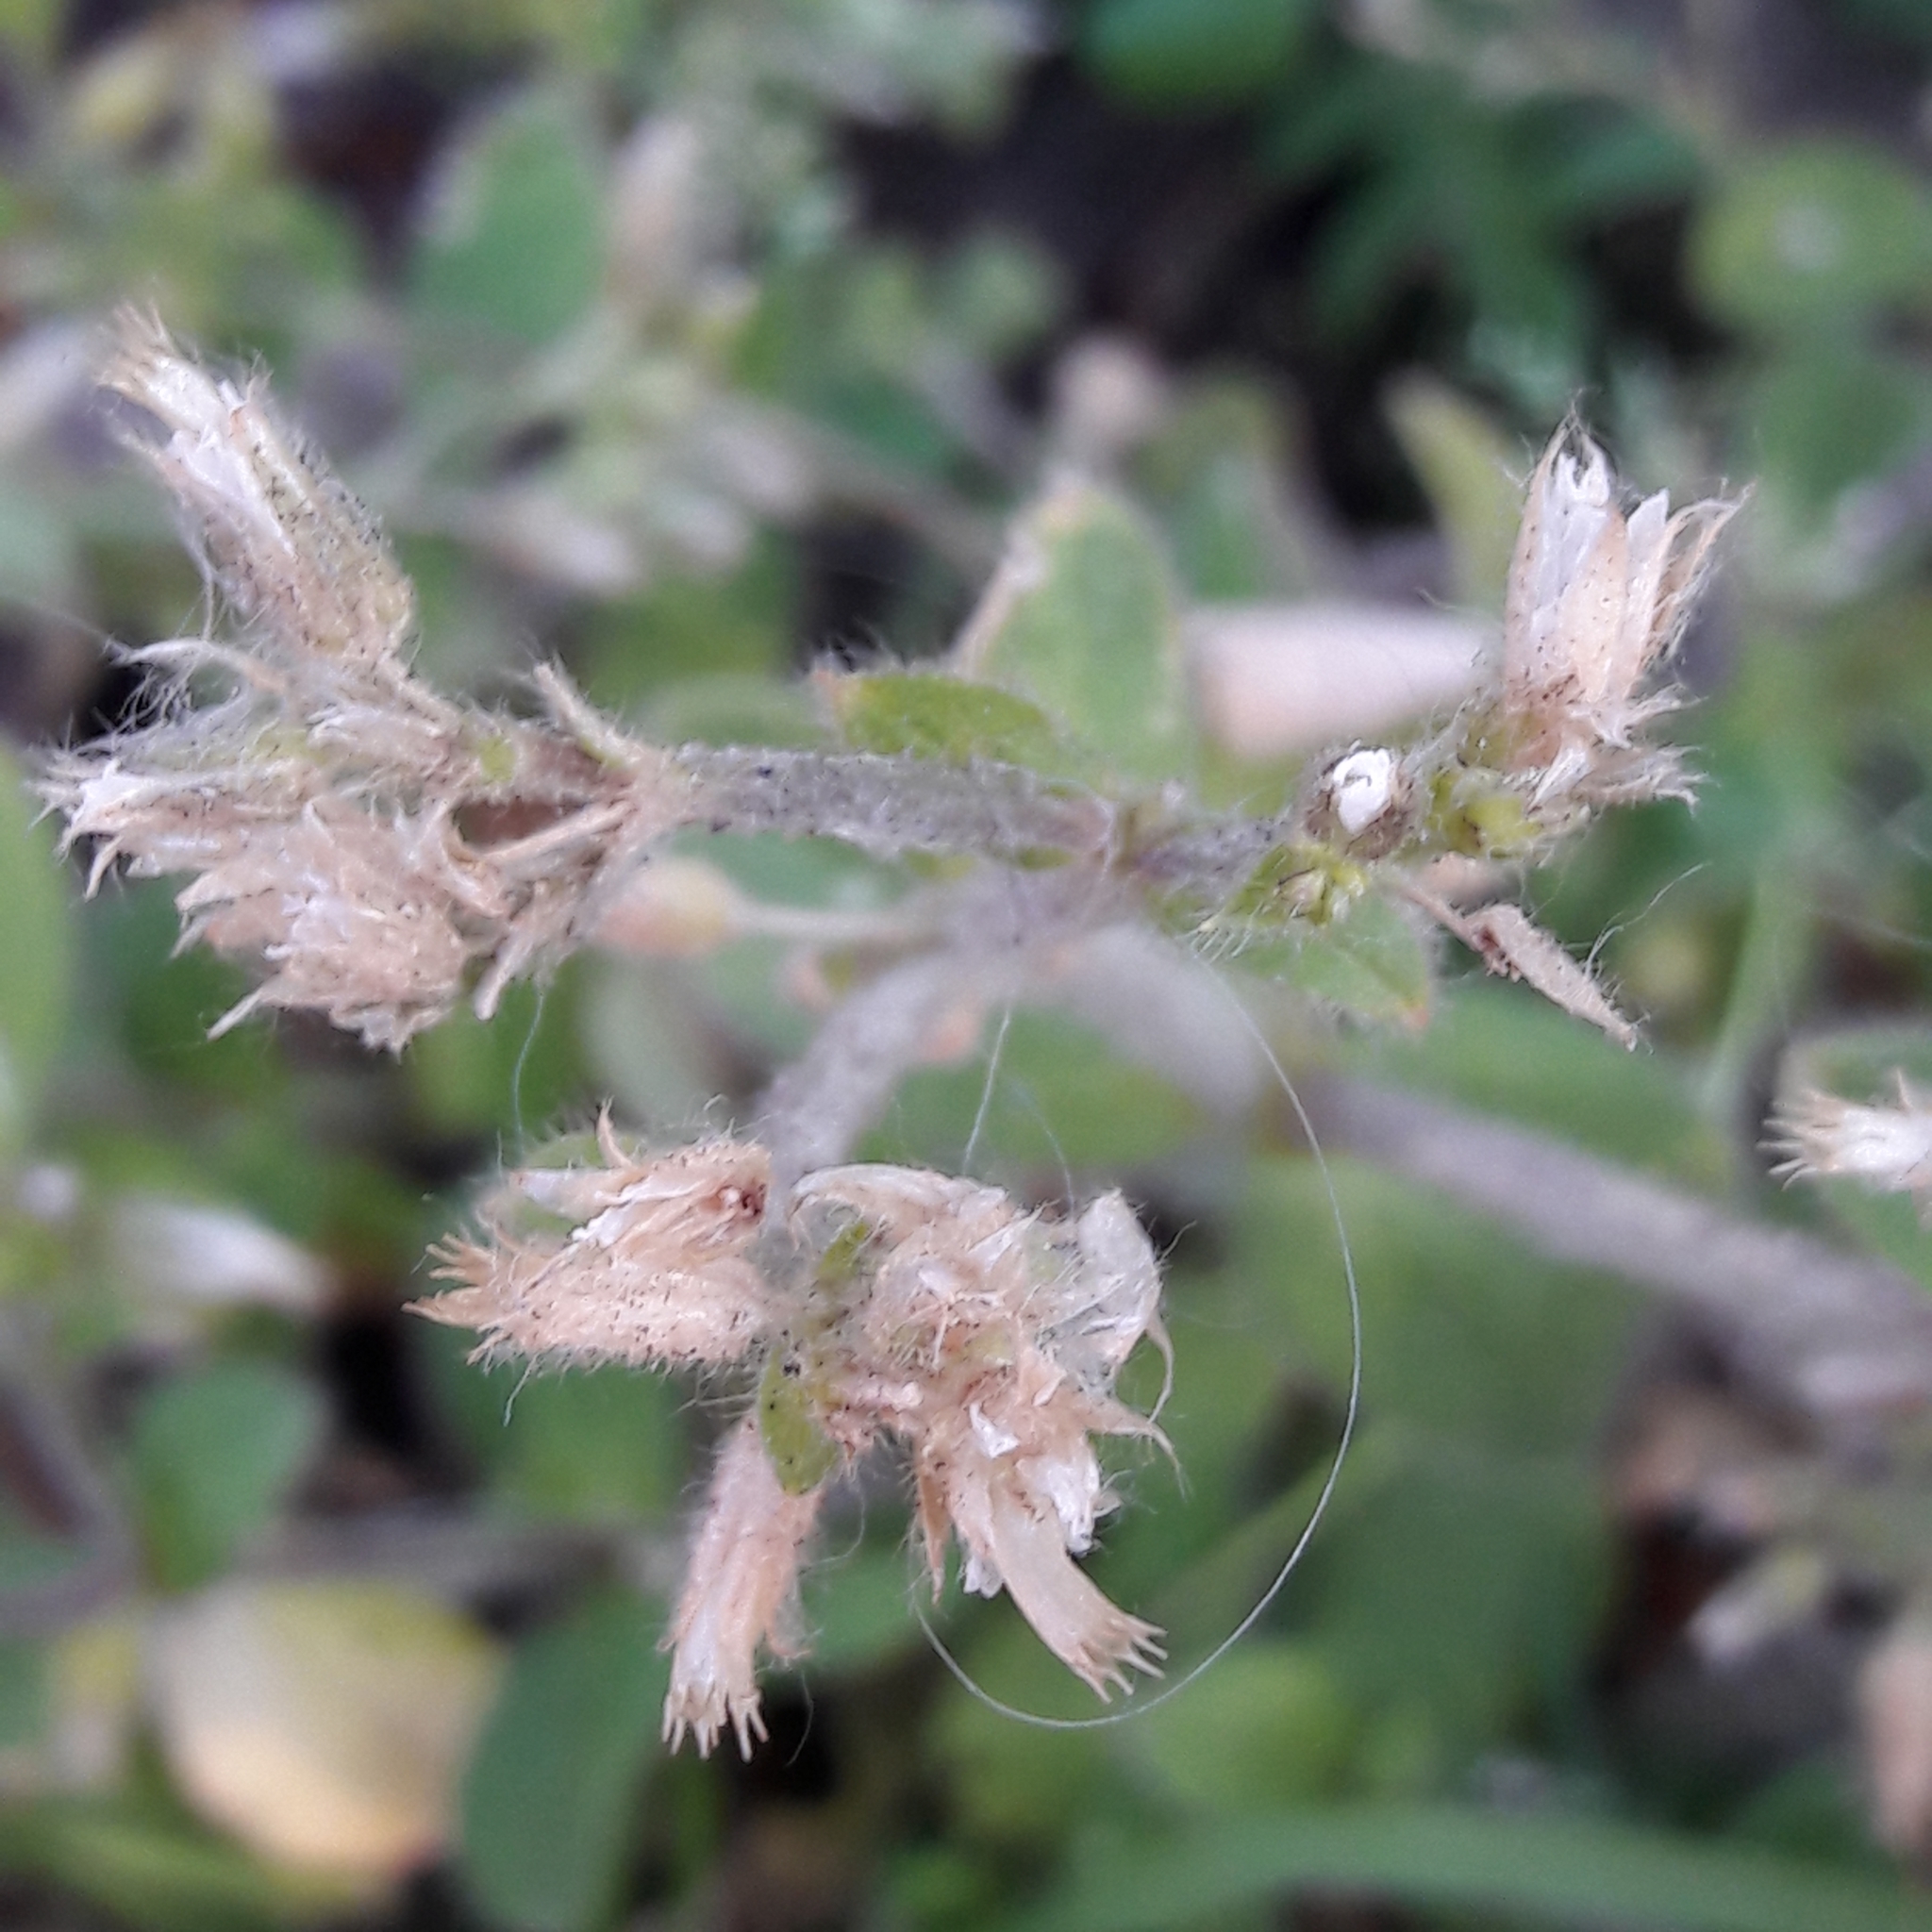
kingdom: Plantae
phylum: Tracheophyta
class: Magnoliopsida
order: Caryophyllales
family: Caryophyllaceae
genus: Cerastium
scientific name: Cerastium glomeratum
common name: Sticky chickweed
